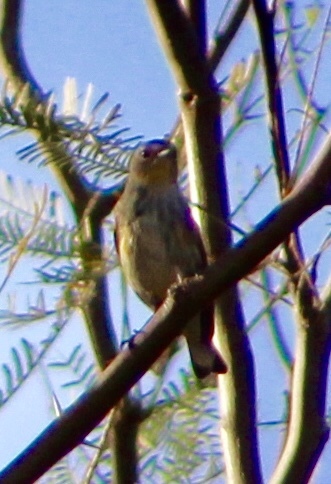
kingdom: Animalia
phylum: Chordata
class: Aves
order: Passeriformes
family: Parulidae
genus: Setophaga
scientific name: Setophaga auduboni
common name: Audubon's warbler
